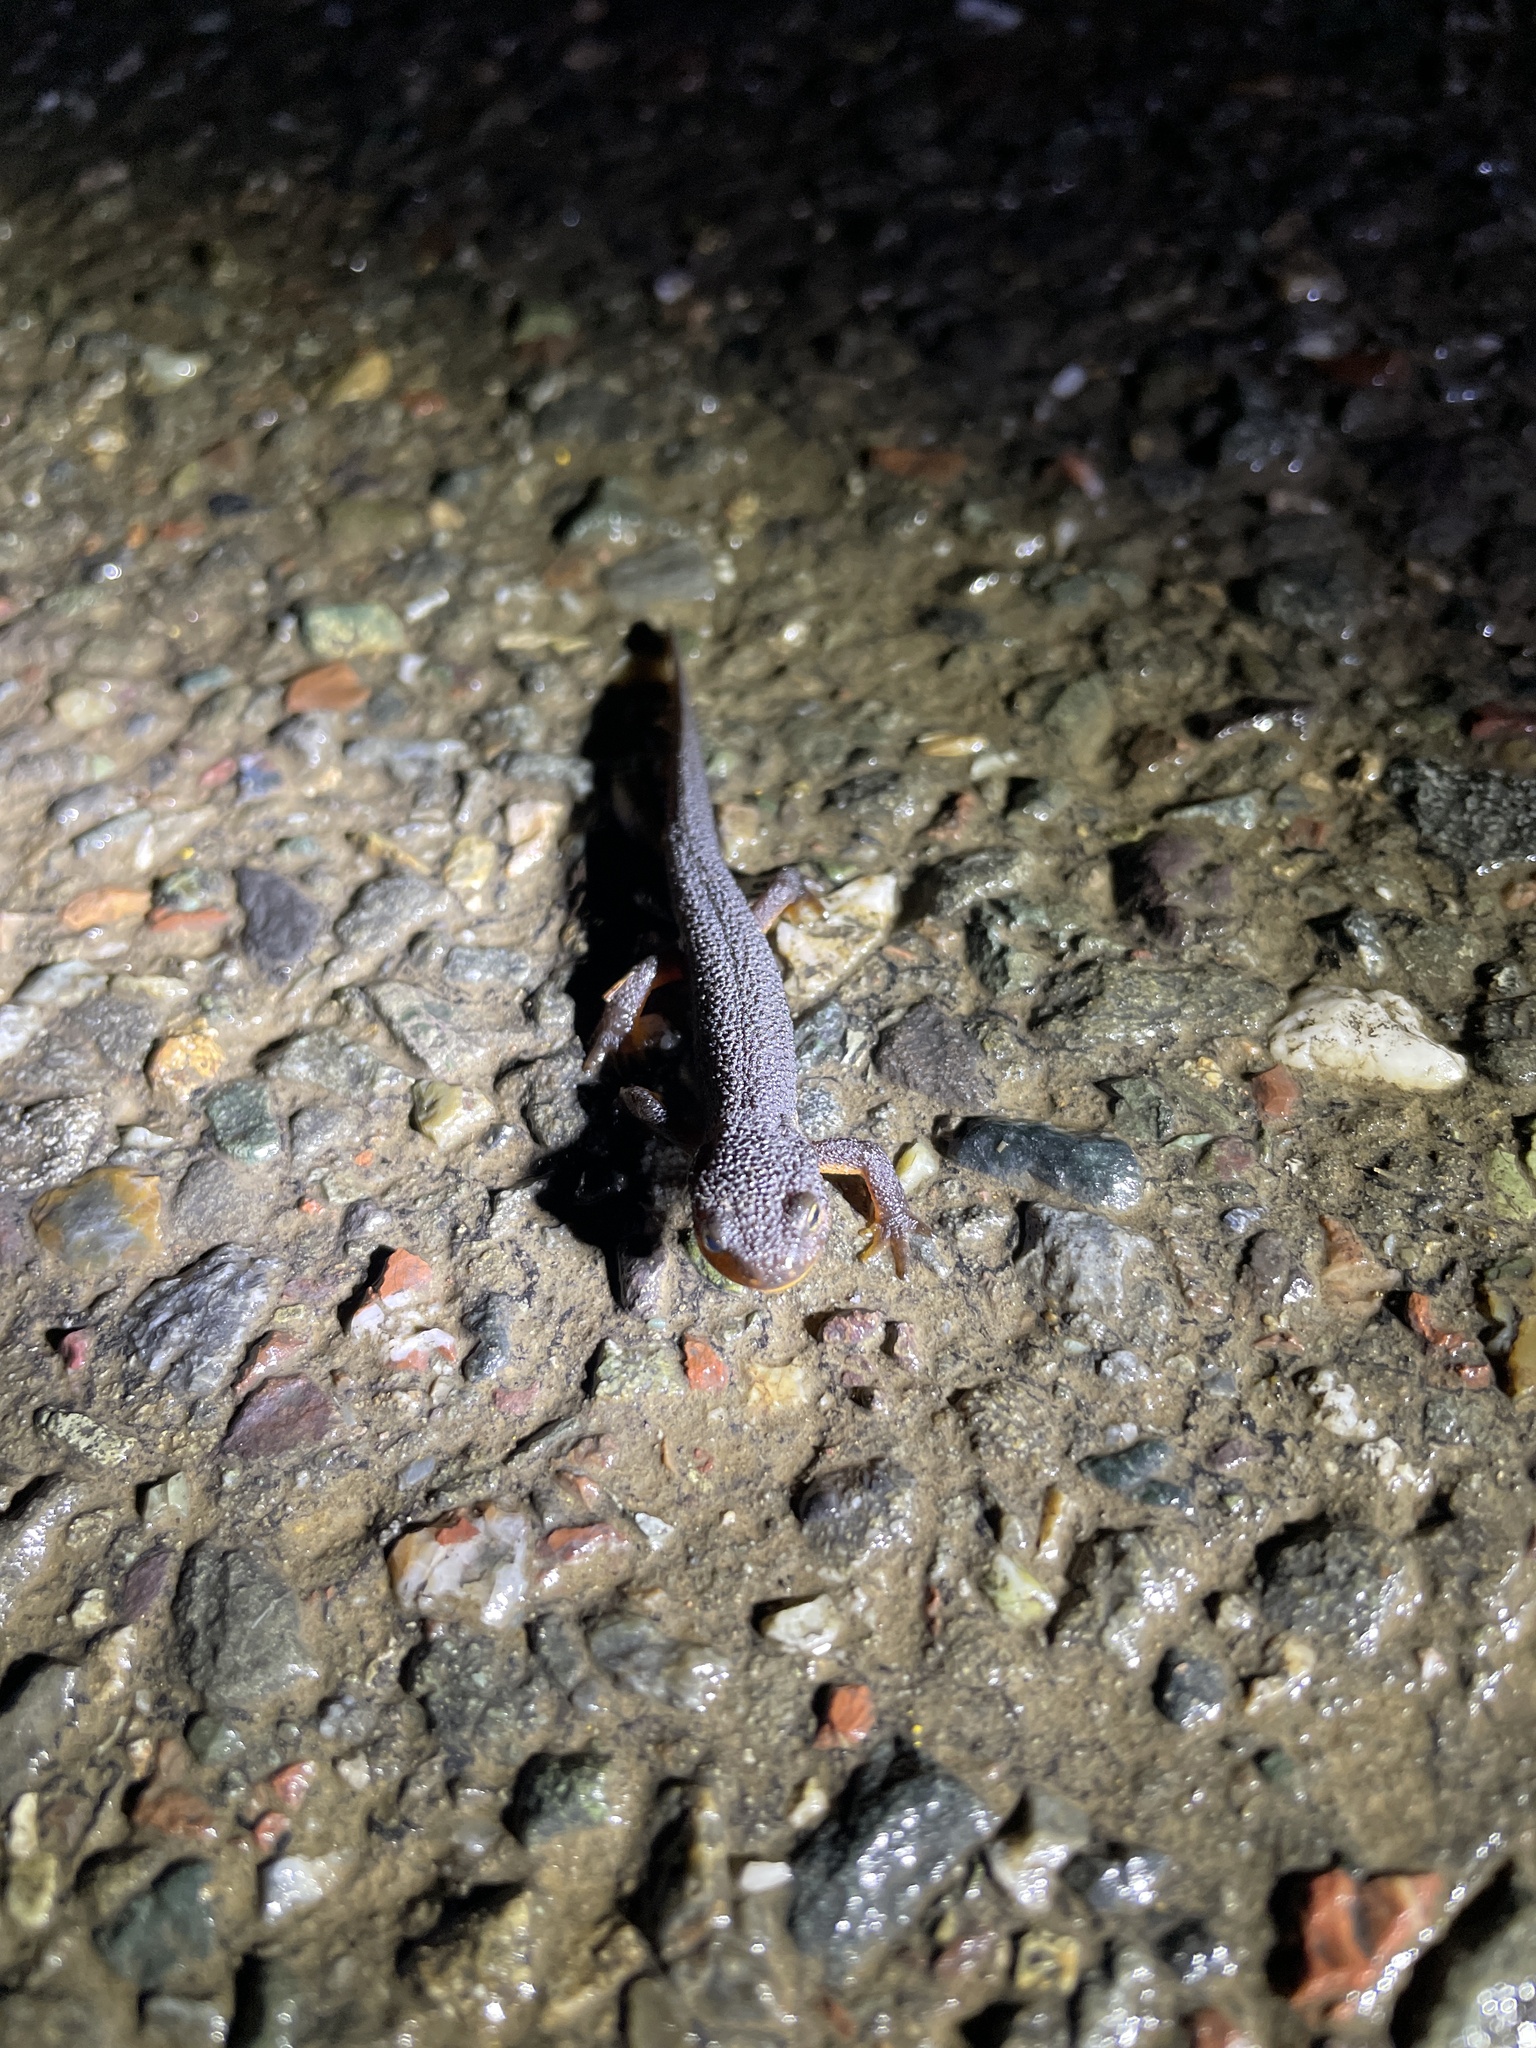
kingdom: Animalia
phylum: Chordata
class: Amphibia
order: Caudata
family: Salamandridae
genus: Taricha
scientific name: Taricha torosa
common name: California newt
